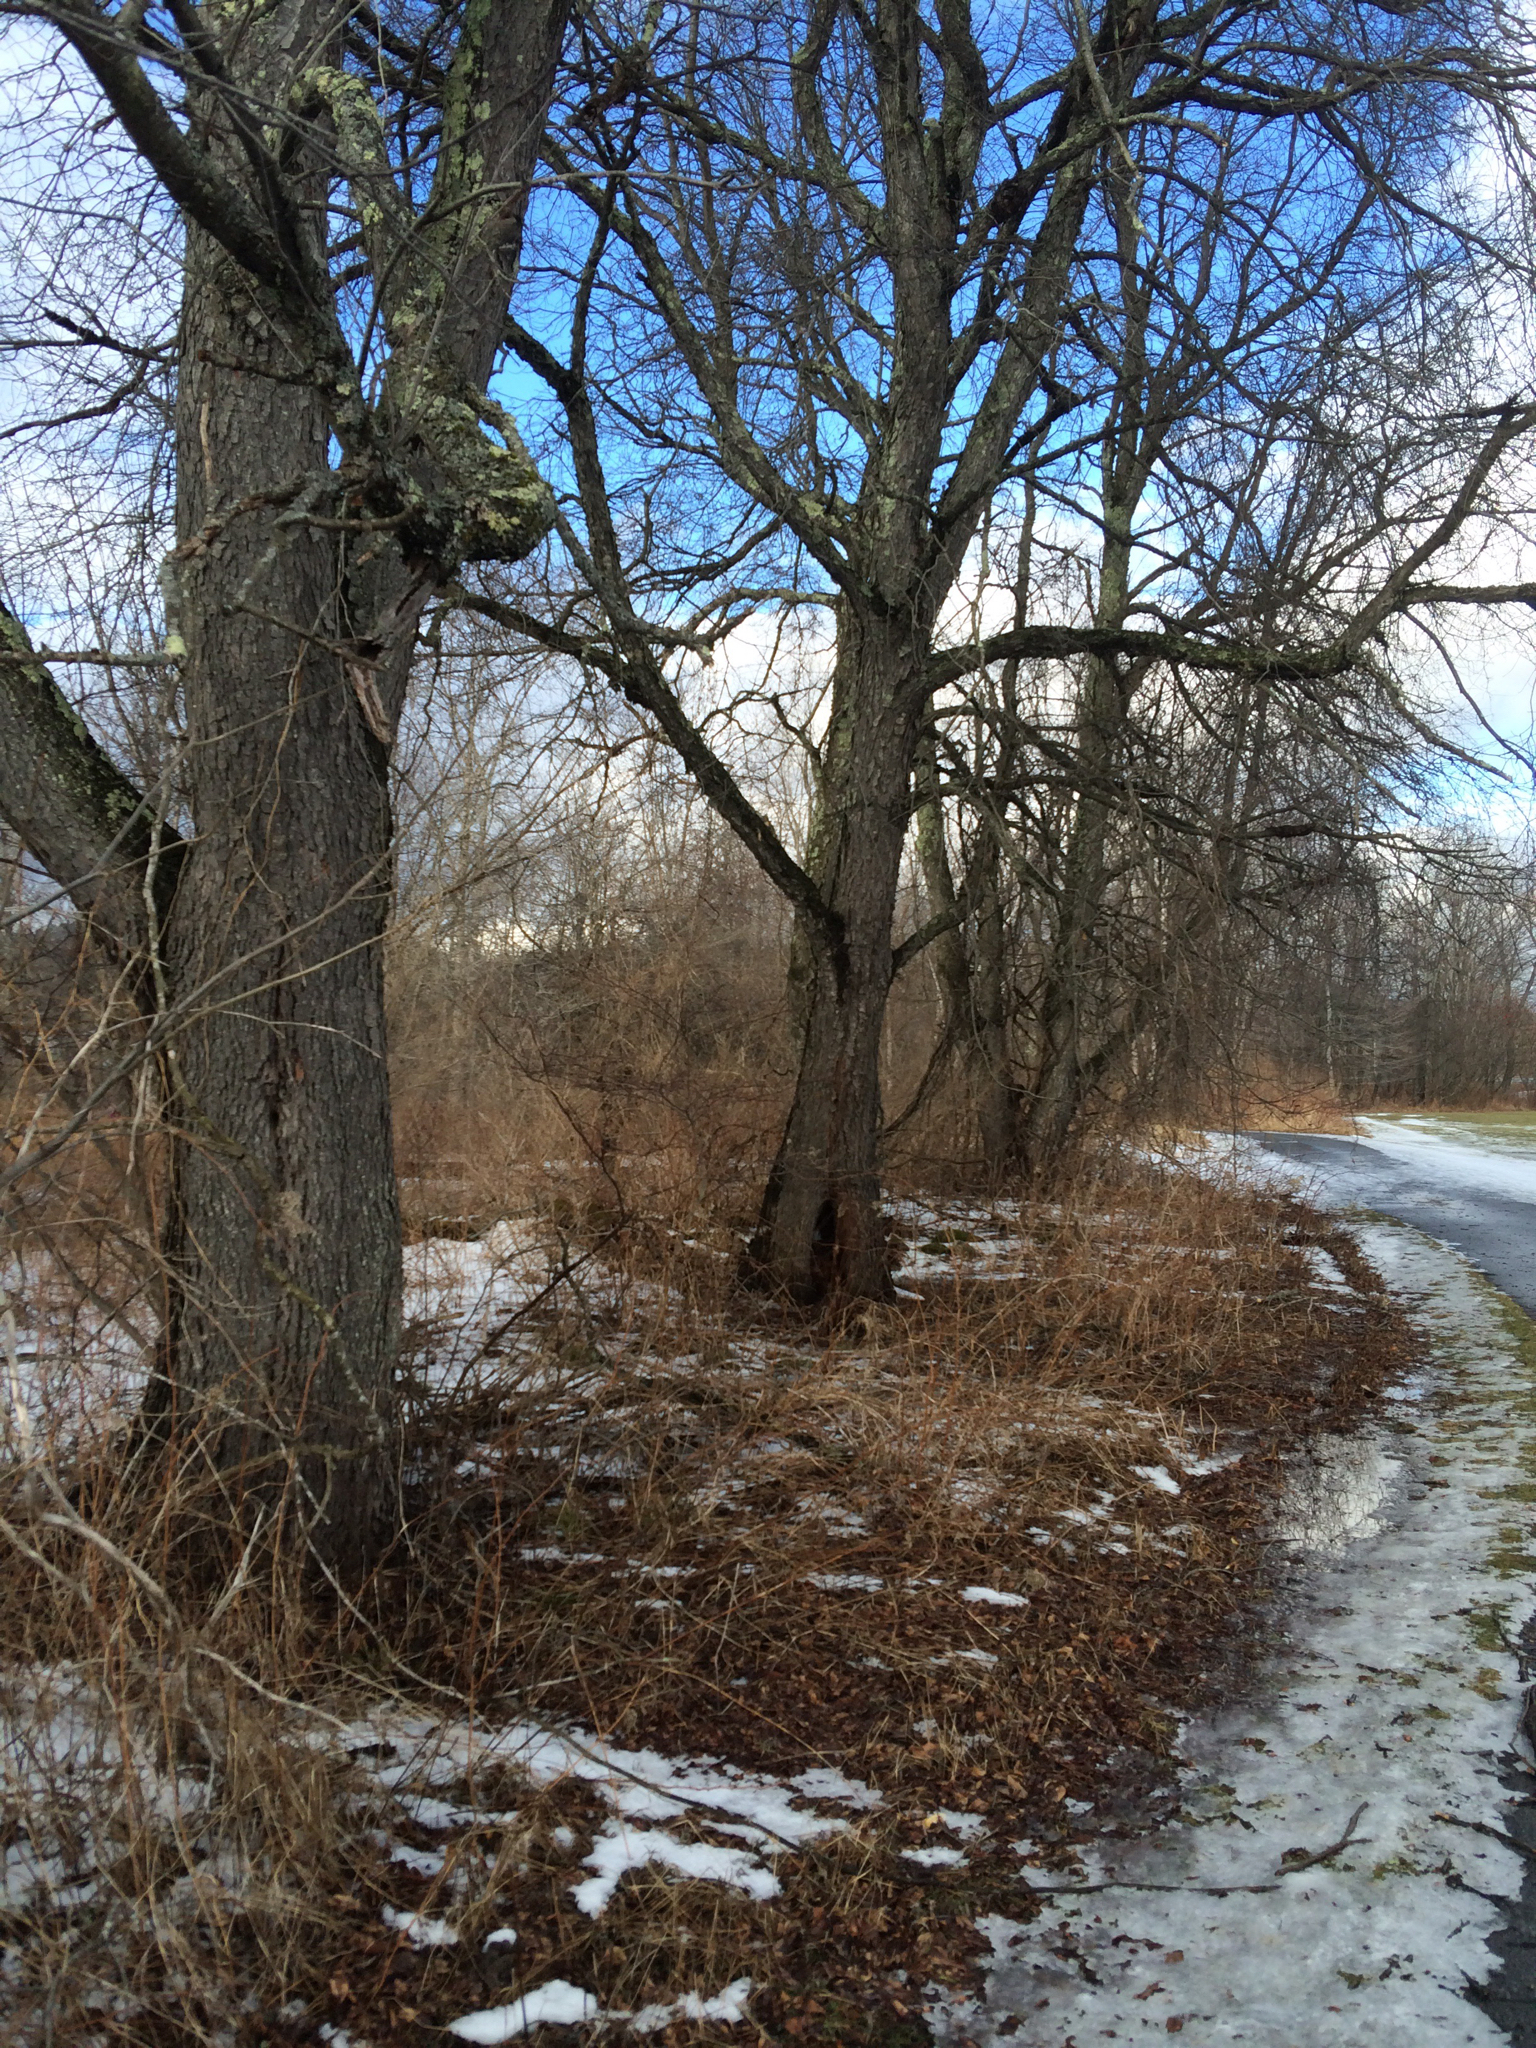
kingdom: Plantae
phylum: Tracheophyta
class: Magnoliopsida
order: Rosales
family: Rosaceae
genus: Prunus
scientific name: Prunus serotina
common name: Black cherry
